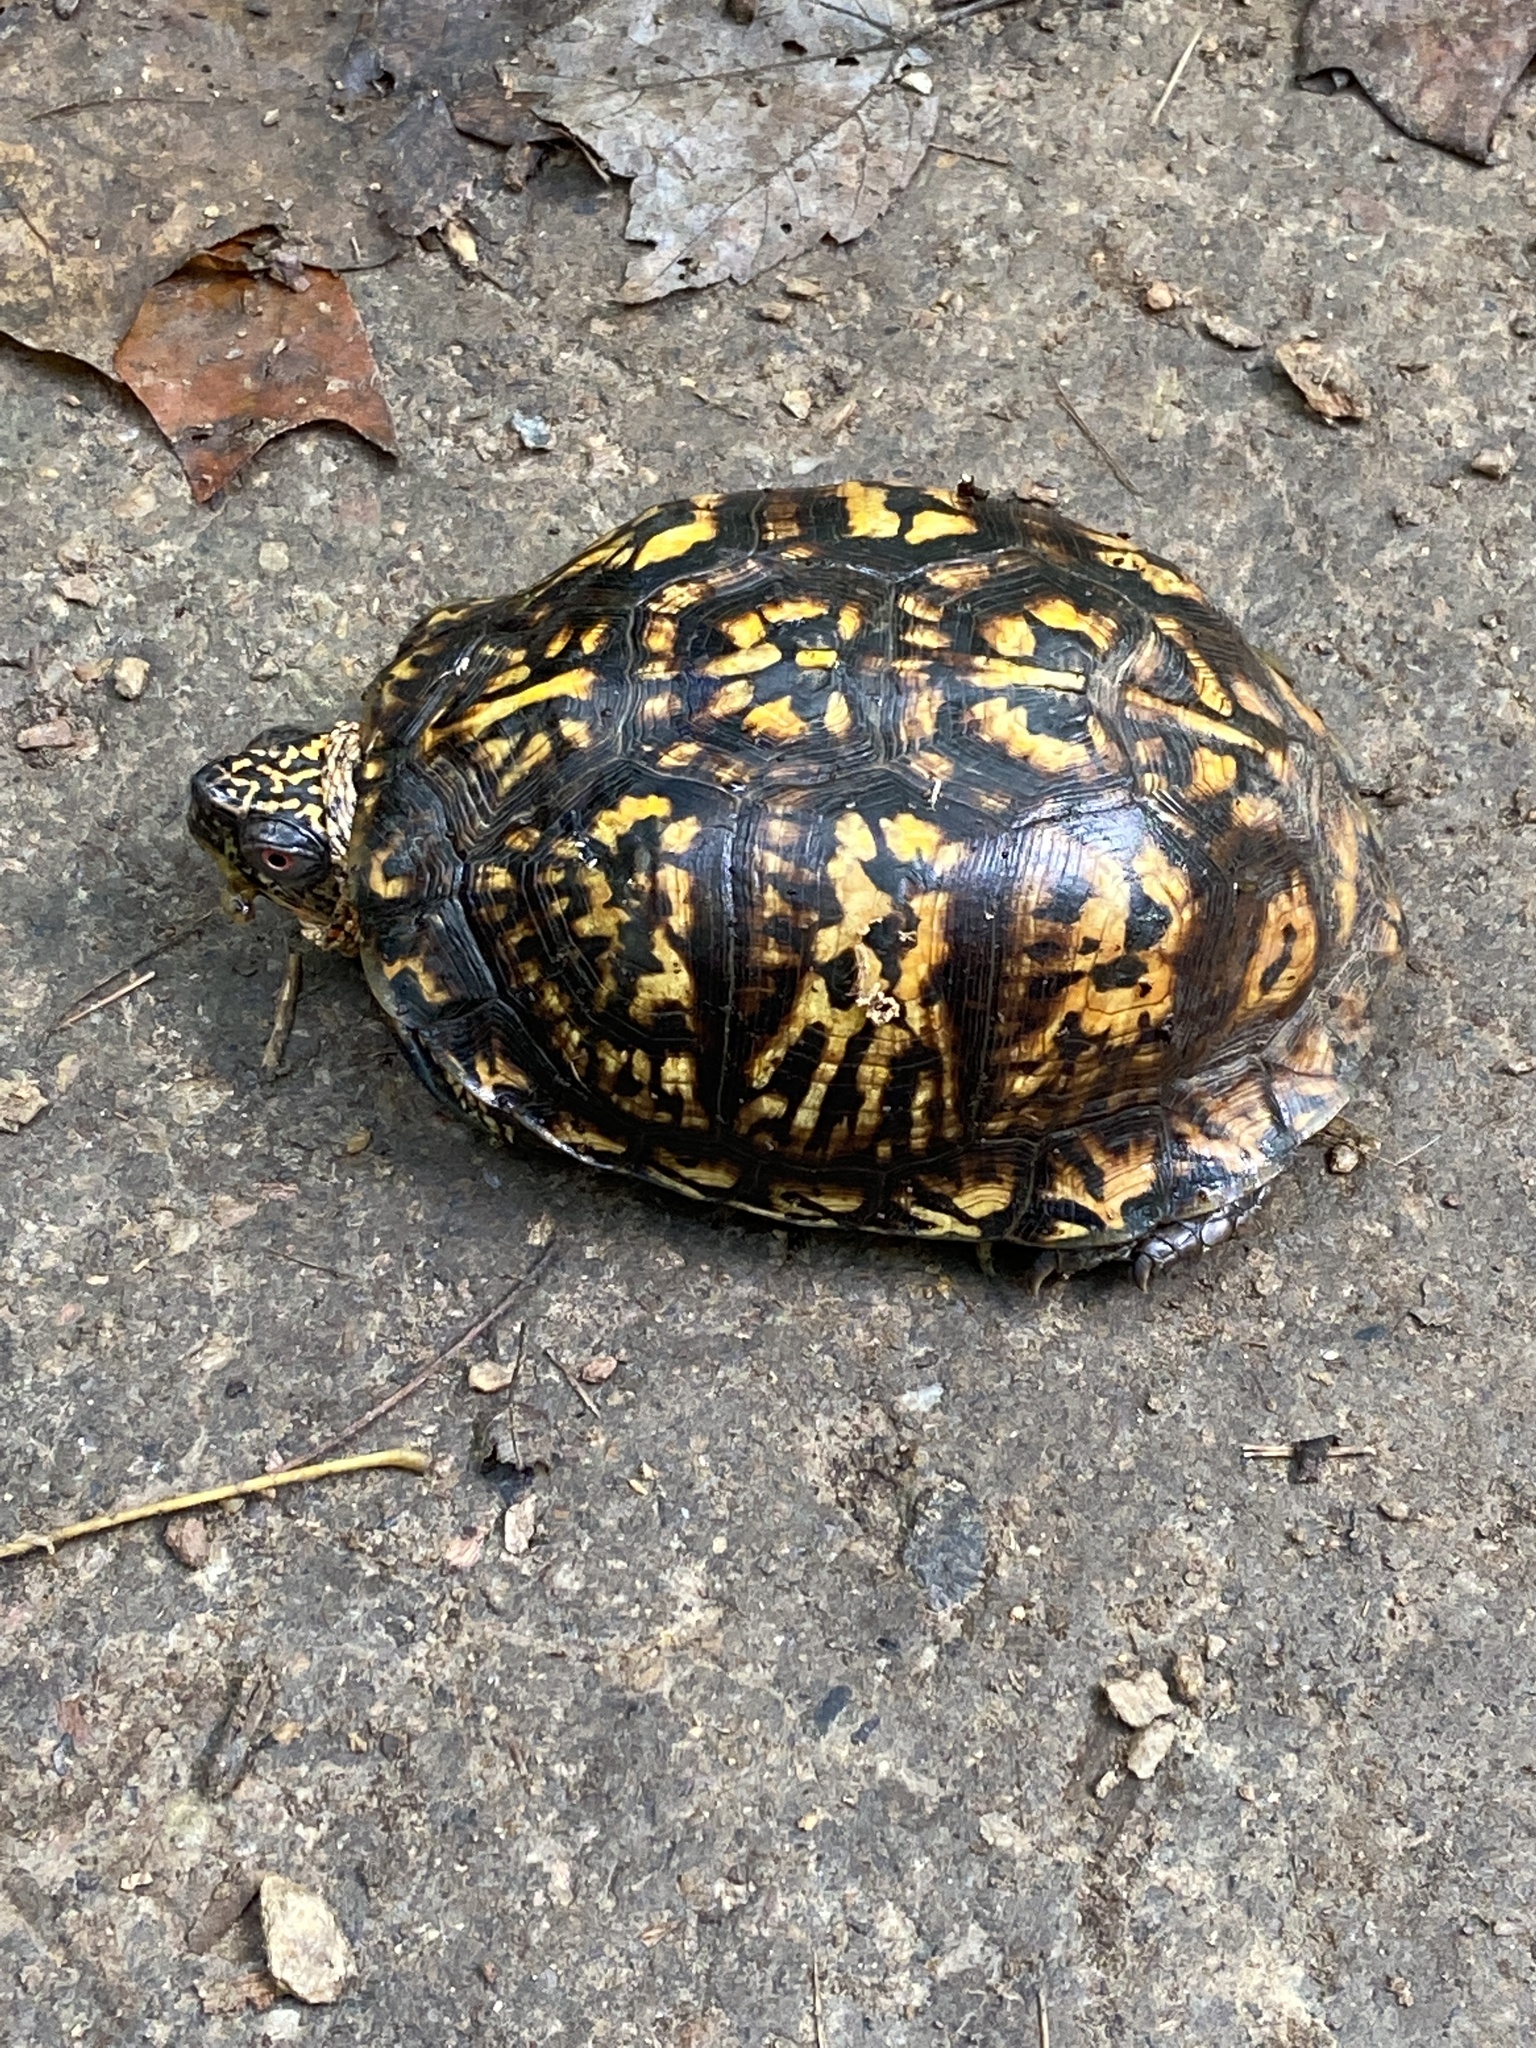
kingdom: Animalia
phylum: Chordata
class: Testudines
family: Emydidae
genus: Terrapene
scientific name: Terrapene carolina
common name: Common box turtle
